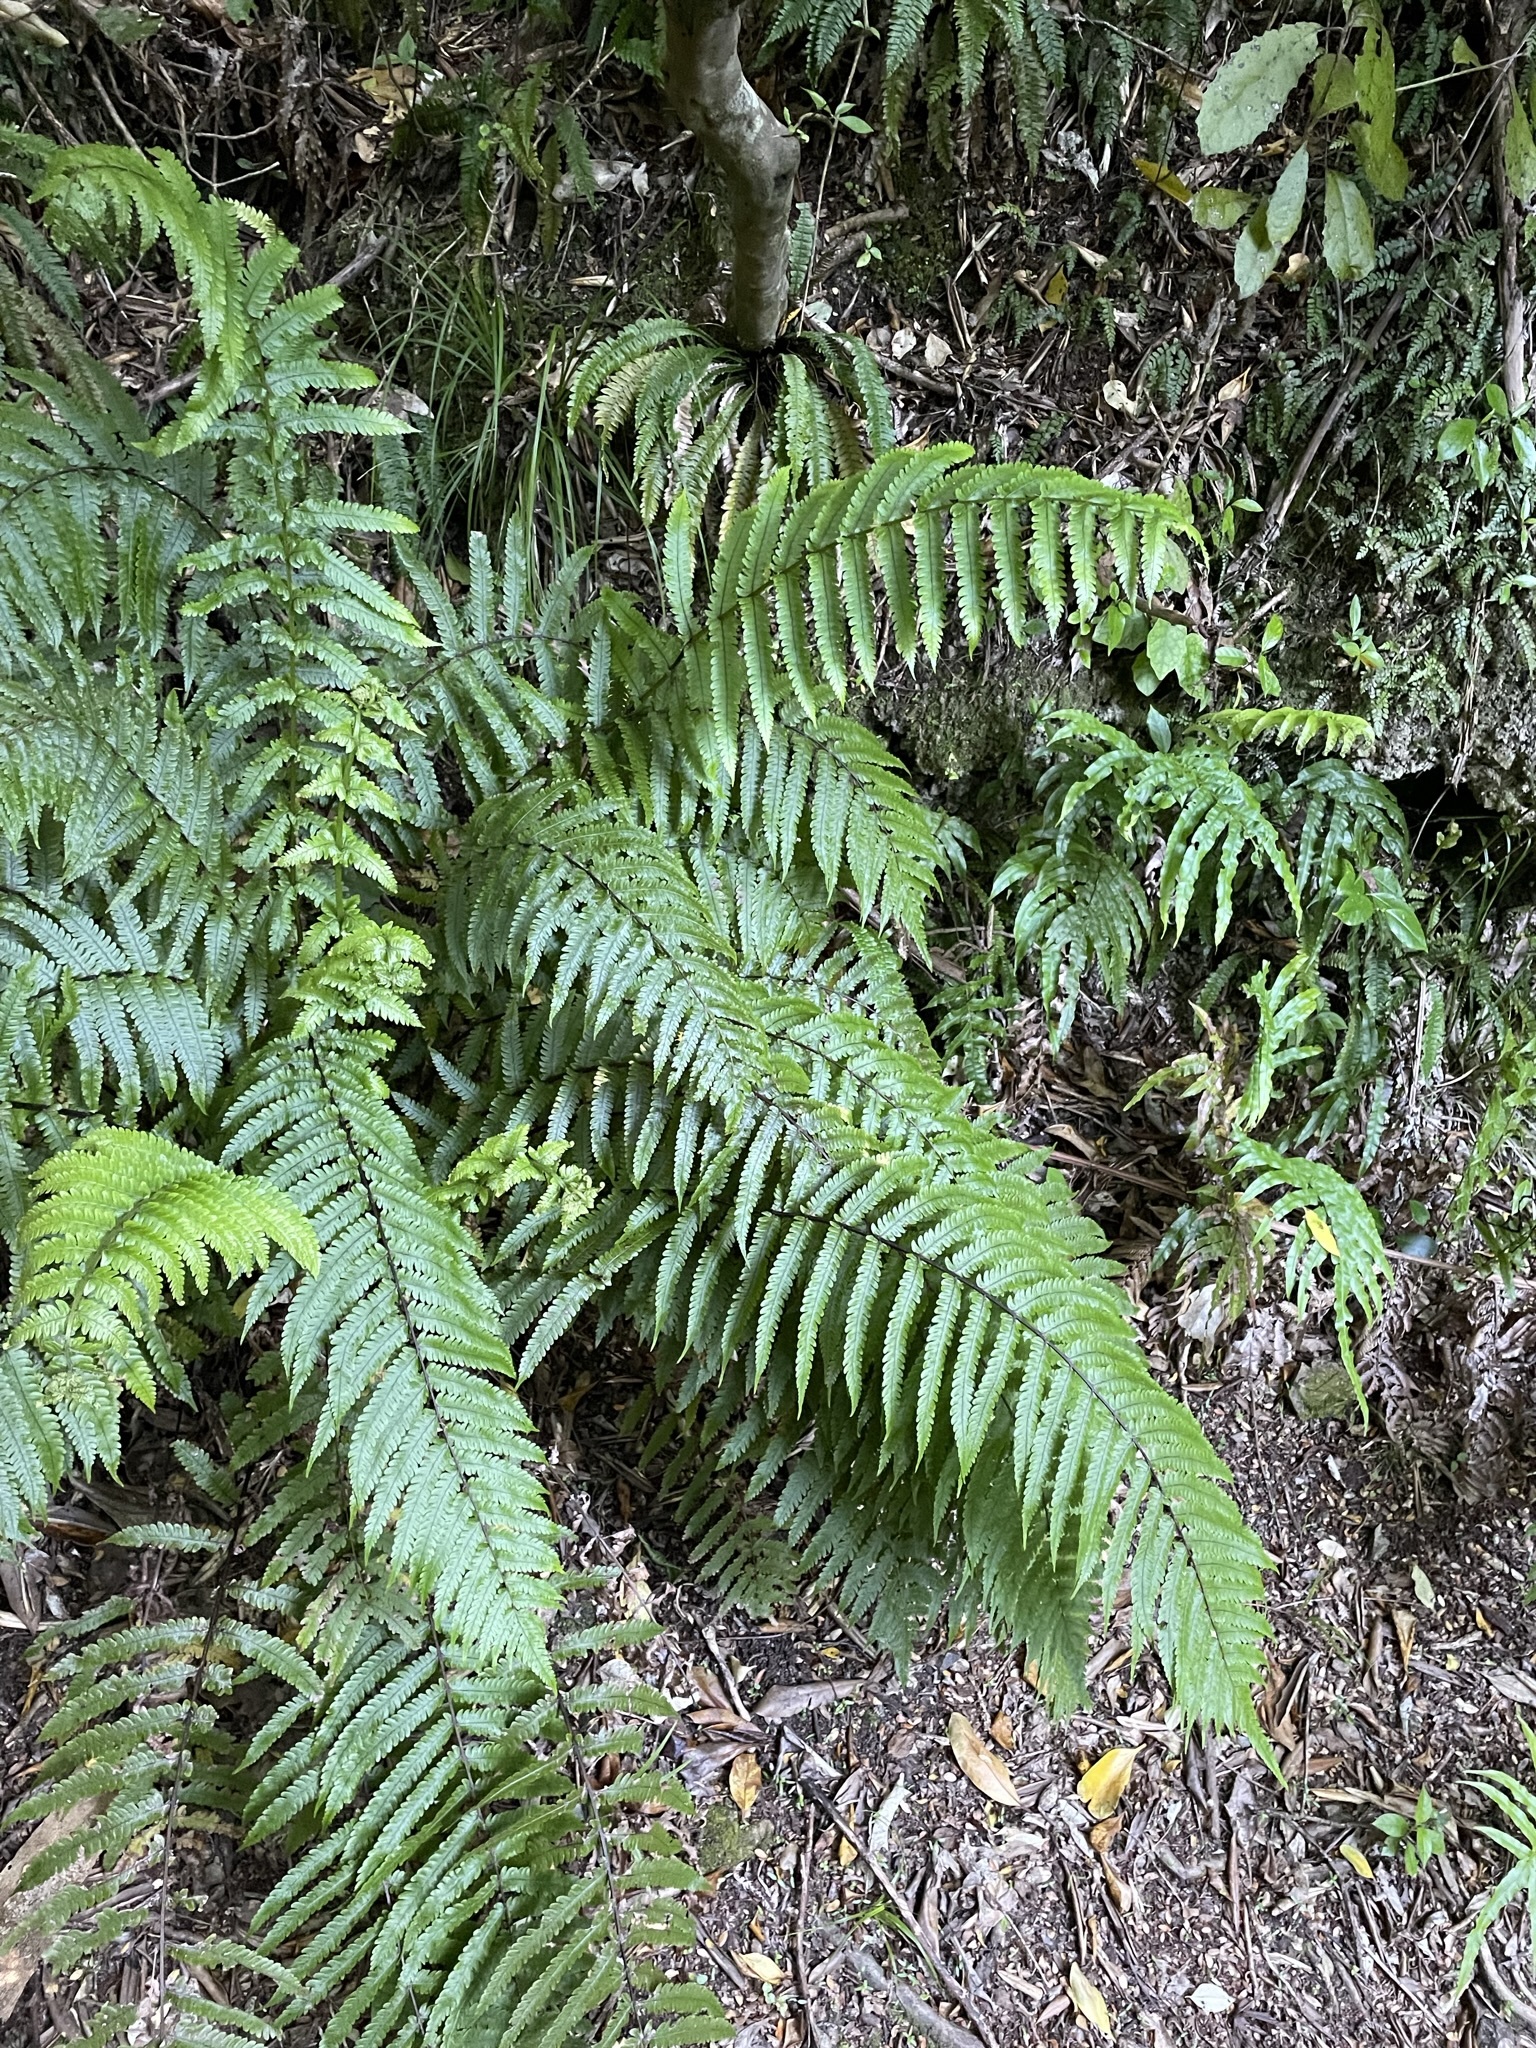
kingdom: Plantae
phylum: Tracheophyta
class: Polypodiopsida
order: Polypodiales
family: Thelypteridaceae
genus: Pakau
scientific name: Pakau pennigera
